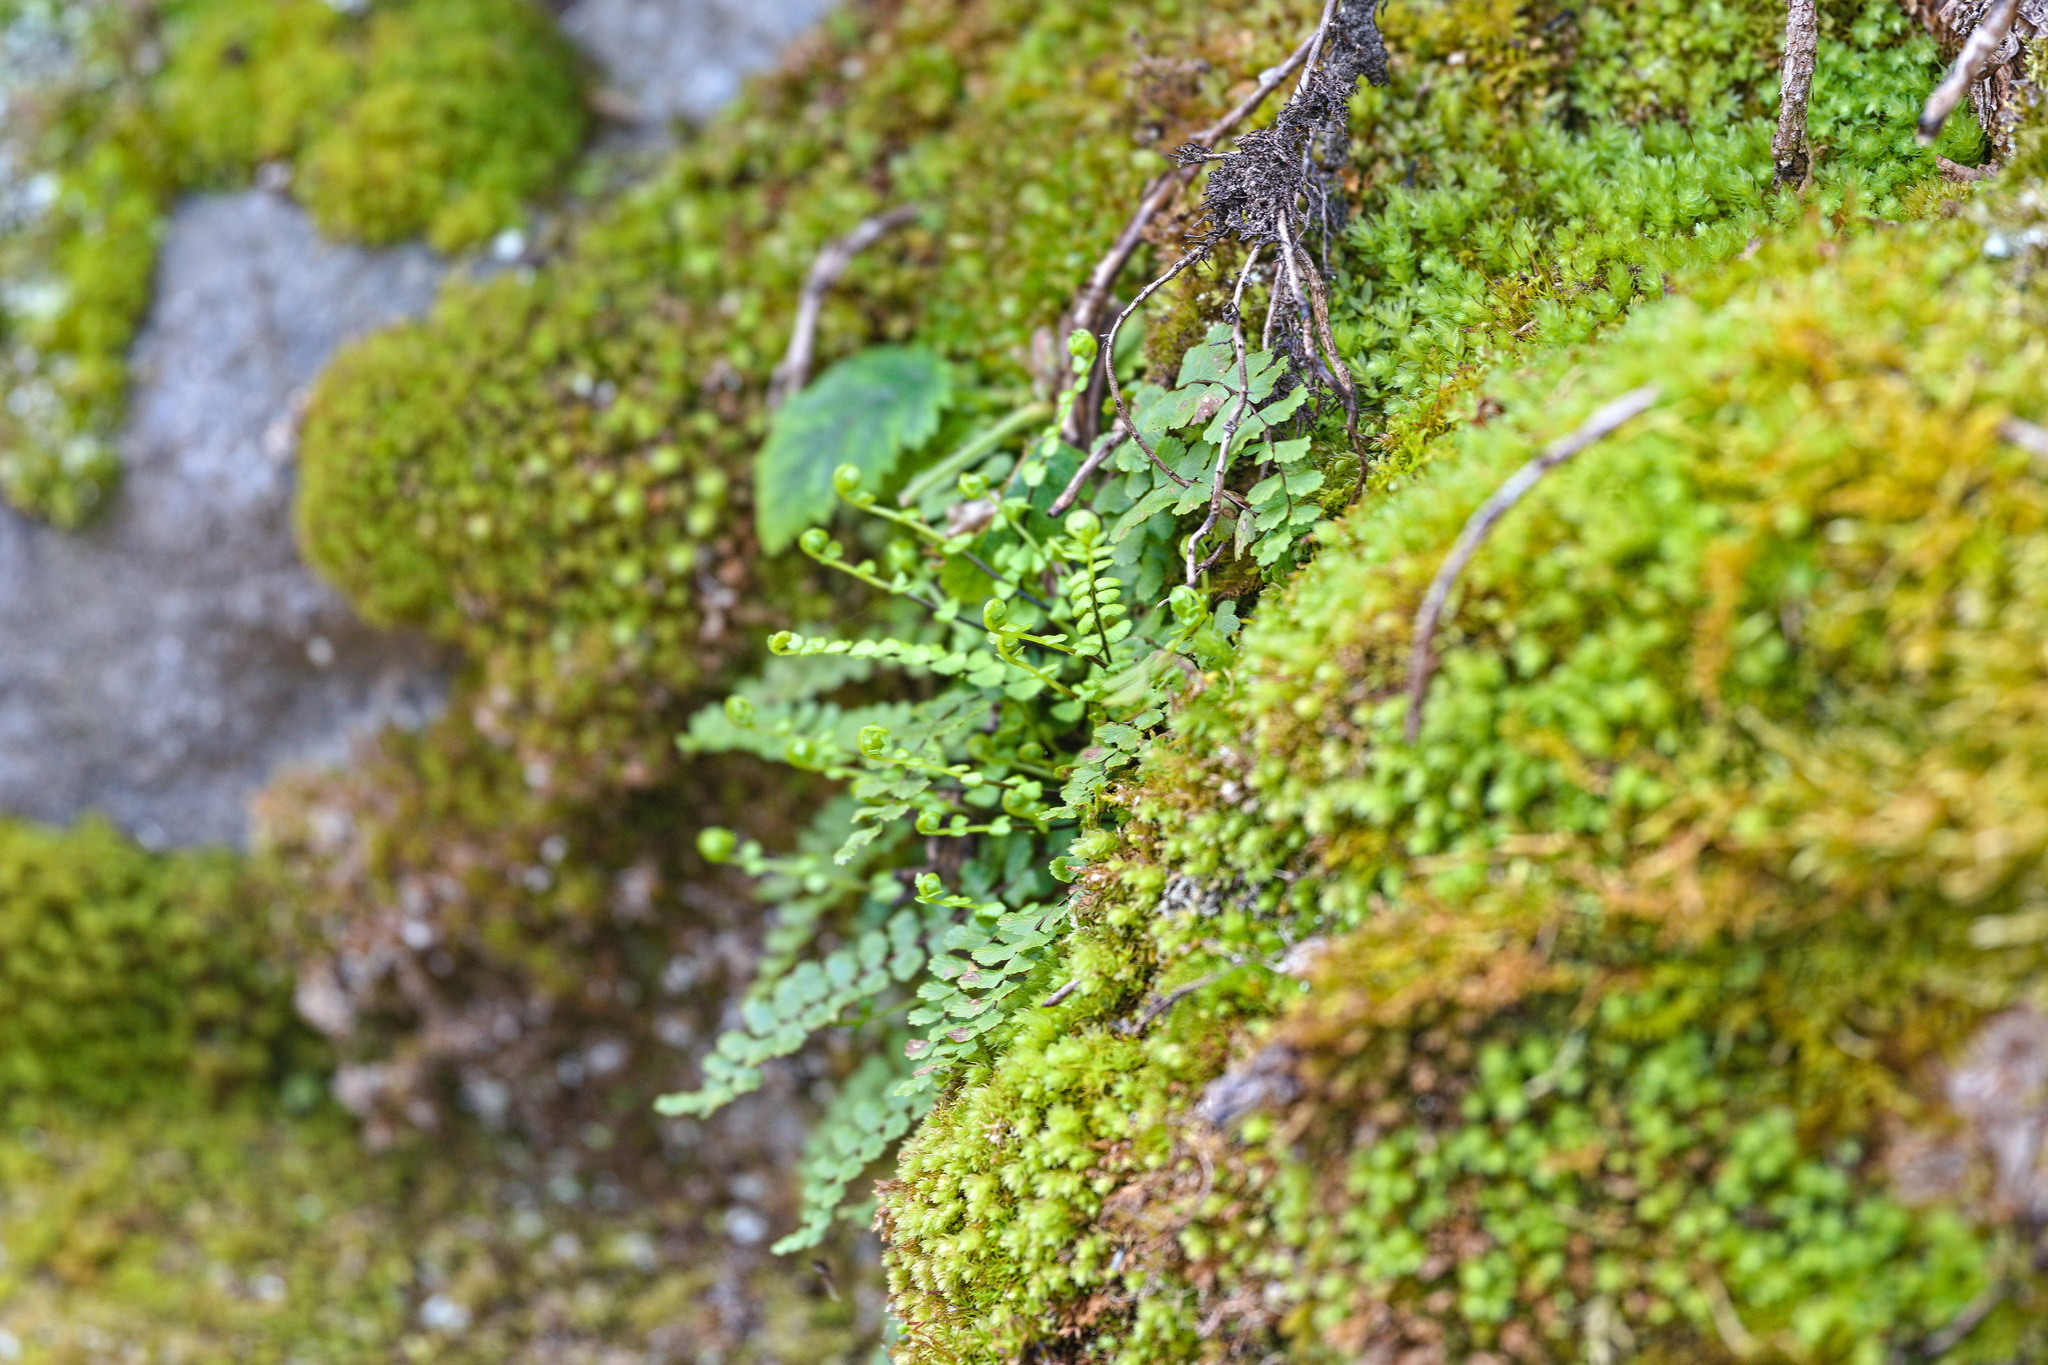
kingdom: Plantae
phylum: Tracheophyta
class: Polypodiopsida
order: Polypodiales
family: Aspleniaceae
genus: Asplenium
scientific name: Asplenium trichomanes
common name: Maidenhair spleenwort
